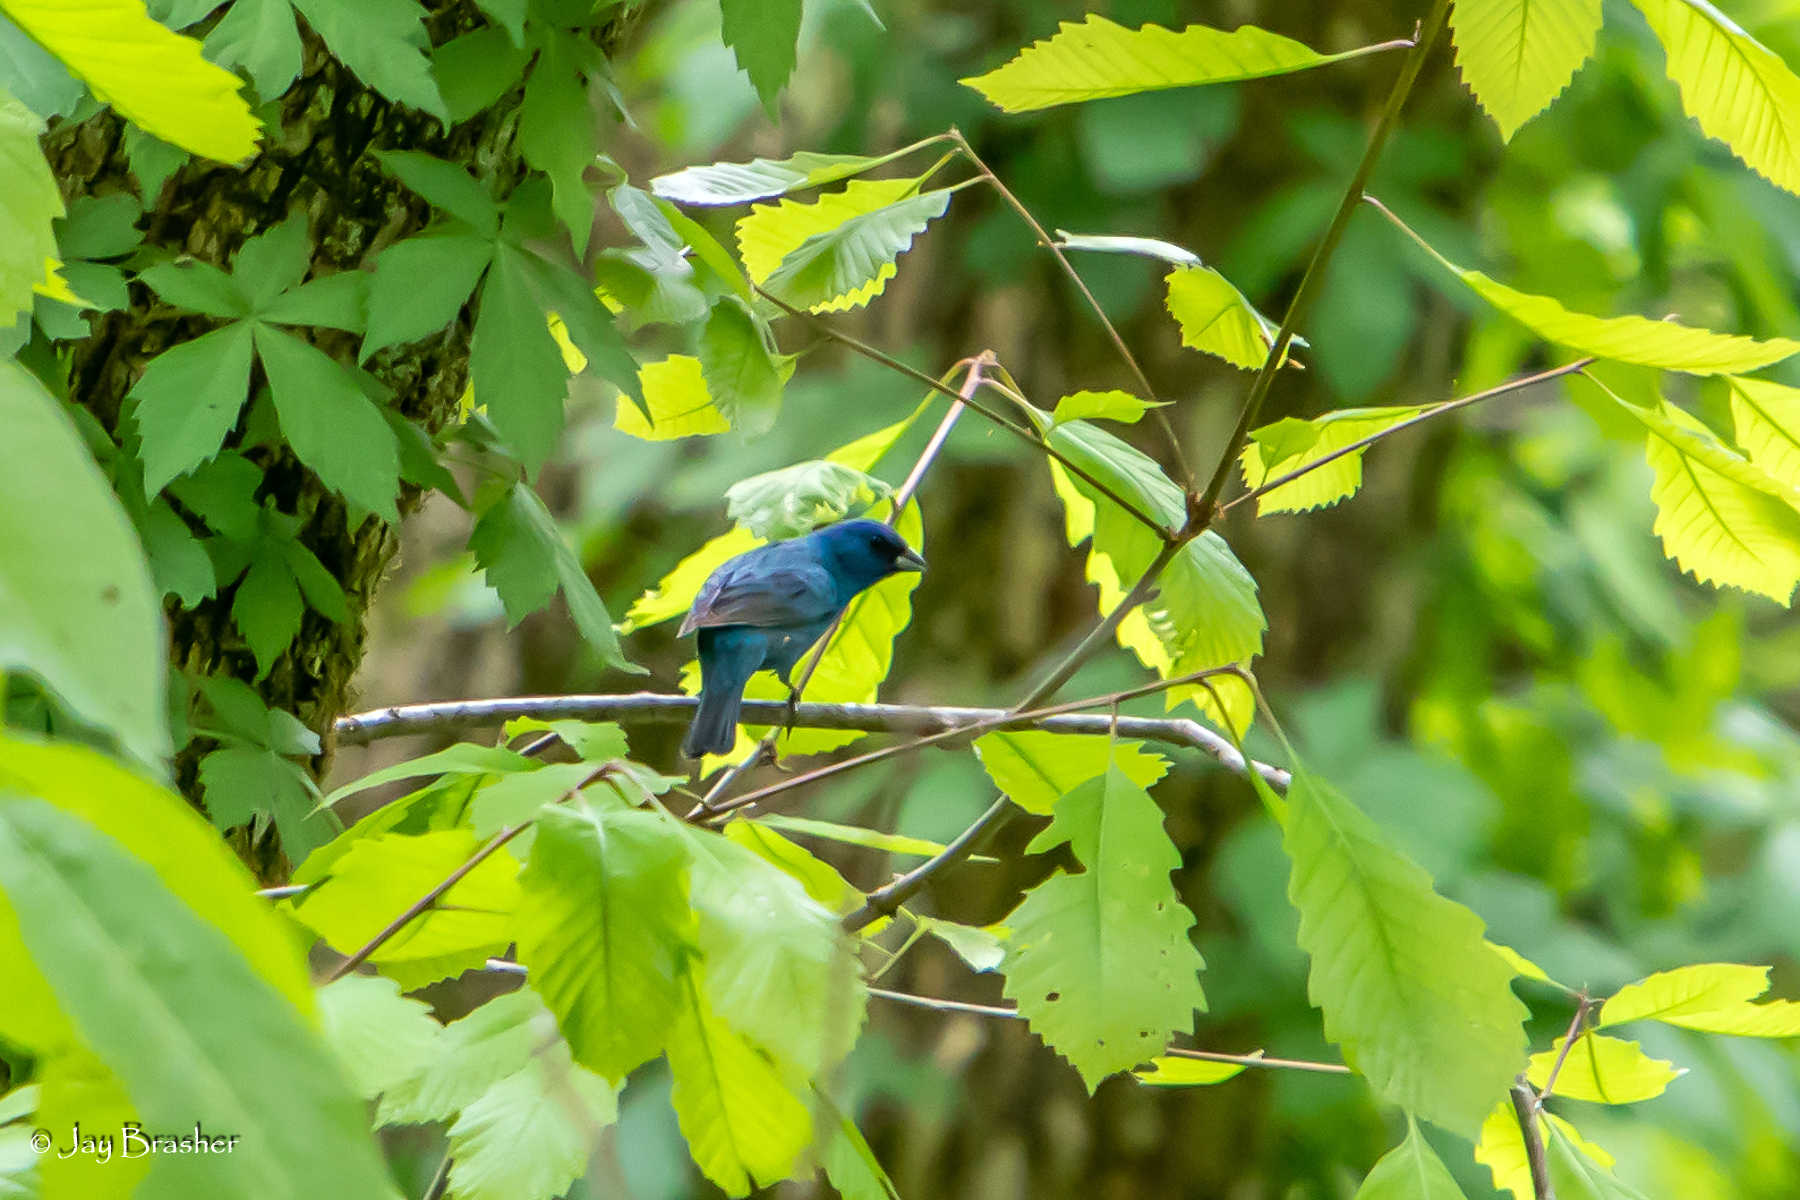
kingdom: Animalia
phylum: Chordata
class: Aves
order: Passeriformes
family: Cardinalidae
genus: Passerina
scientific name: Passerina cyanea
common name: Indigo bunting
